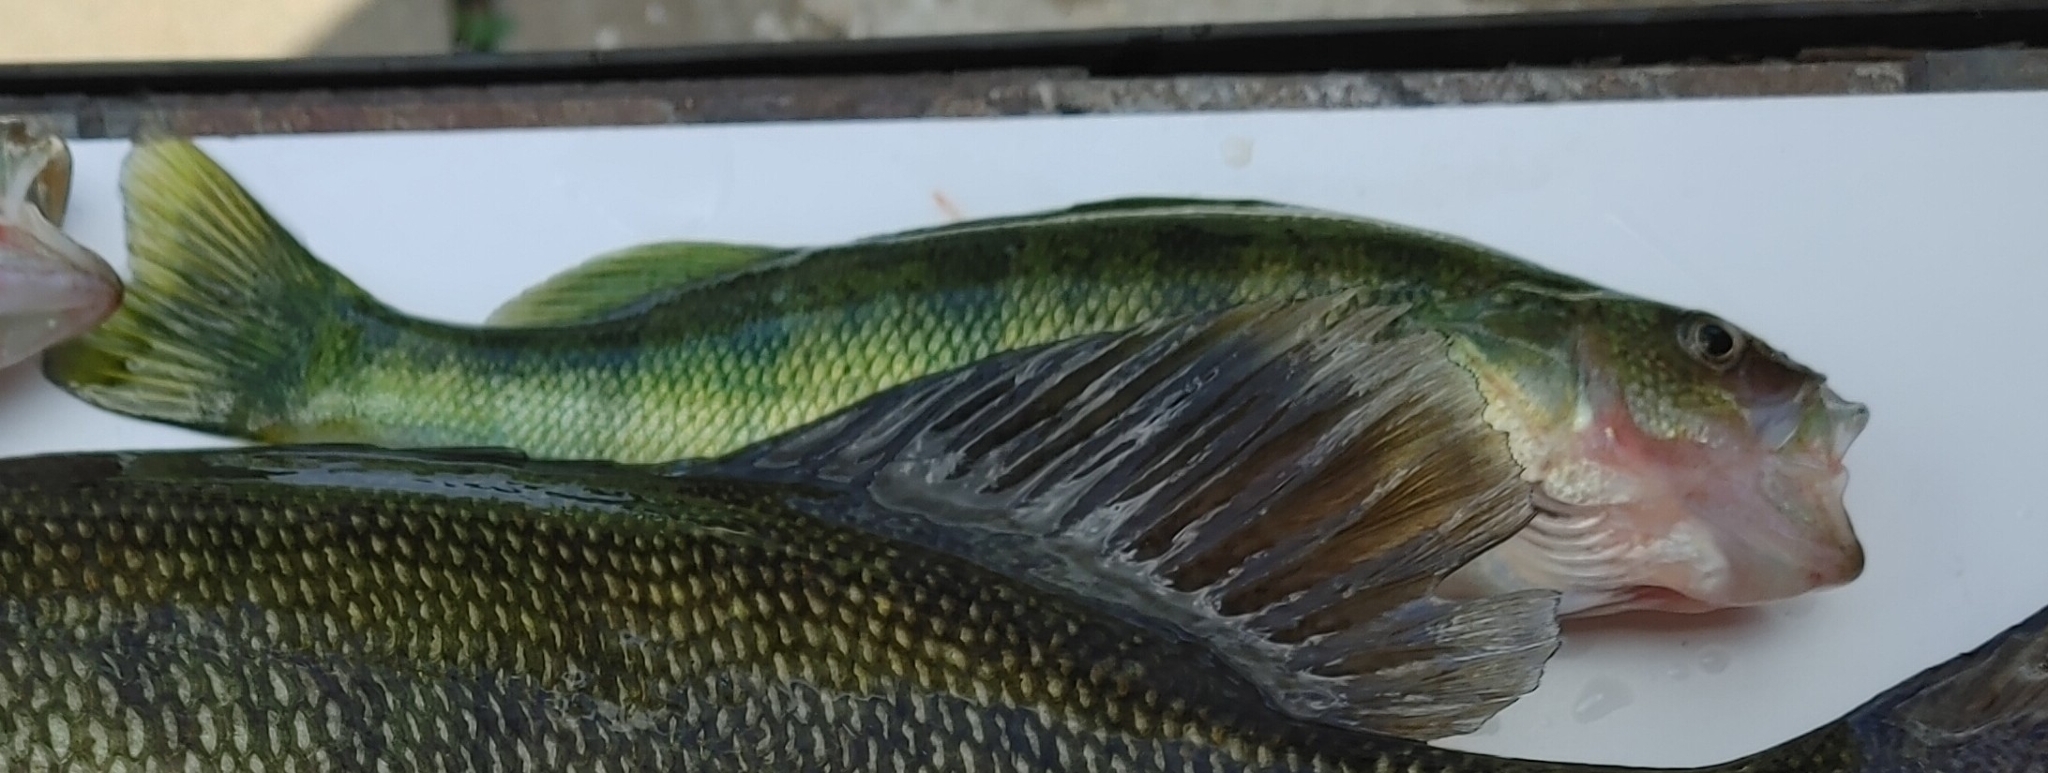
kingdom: Animalia
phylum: Chordata
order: Perciformes
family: Percidae
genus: Perca
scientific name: Perca flavescens
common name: Yellow perch
